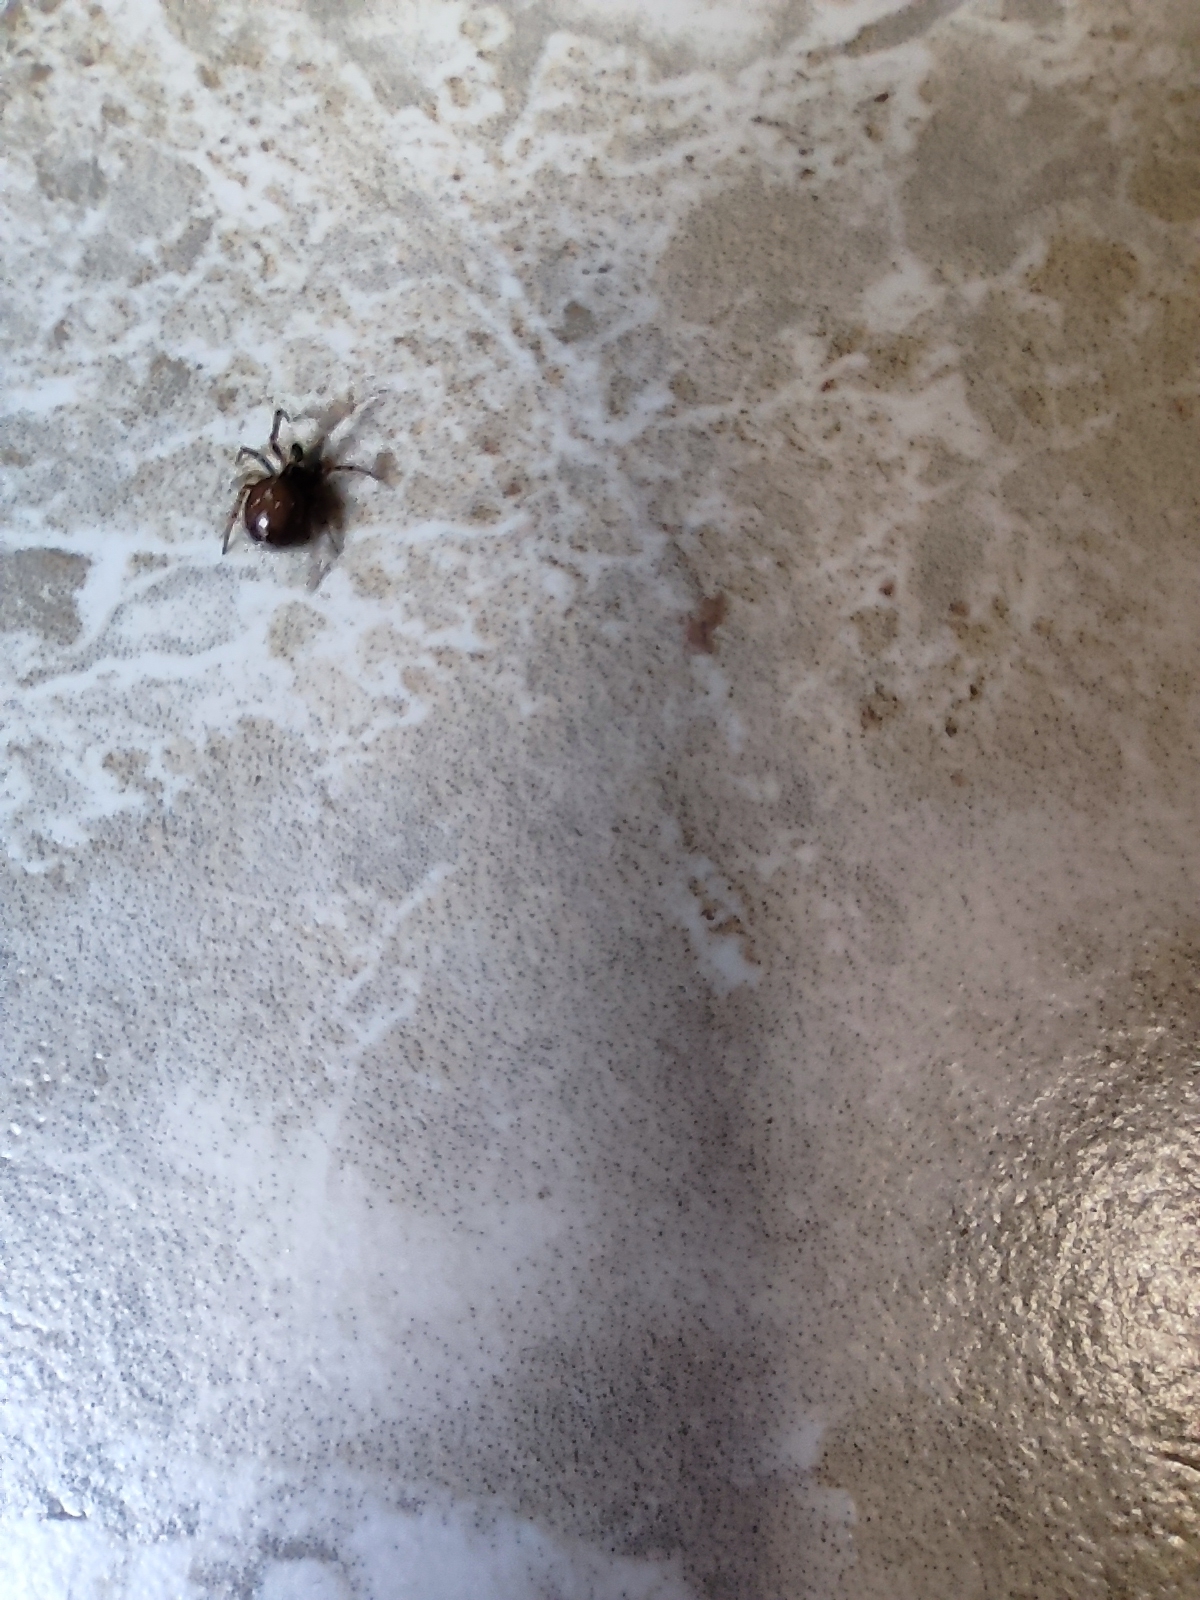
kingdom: Animalia
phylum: Arthropoda
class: Arachnida
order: Araneae
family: Theridiidae
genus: Steatoda
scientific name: Steatoda bipunctata
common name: False widow
